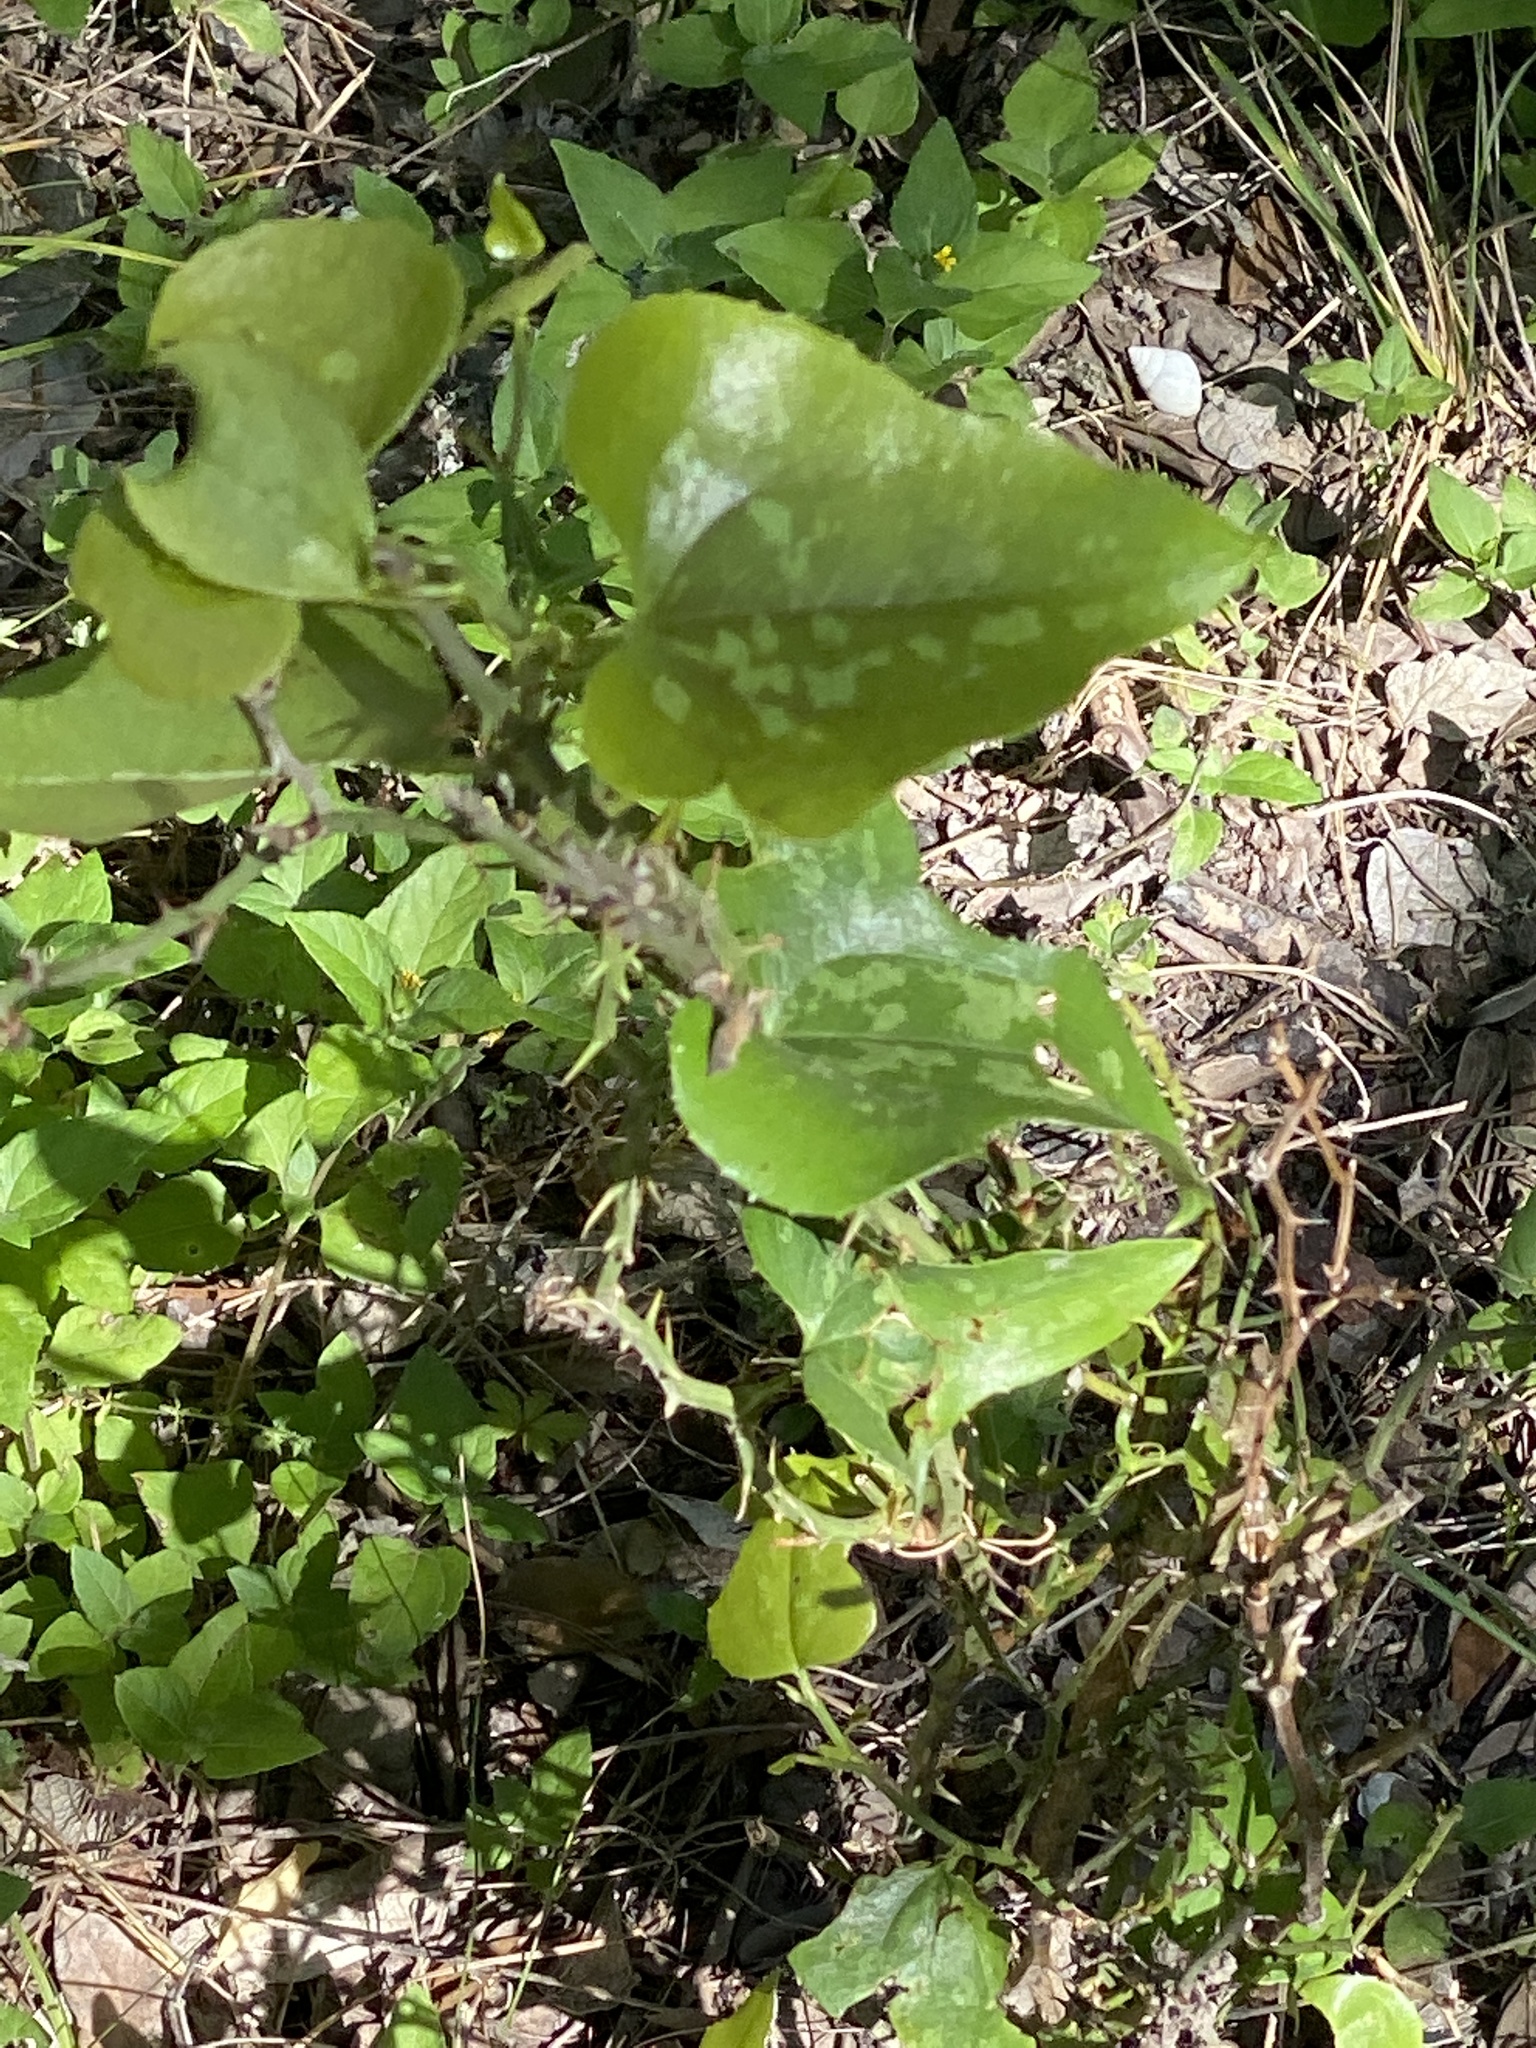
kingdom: Plantae
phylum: Tracheophyta
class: Liliopsida
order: Liliales
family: Smilacaceae
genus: Smilax
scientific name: Smilax bona-nox
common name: Catbrier
